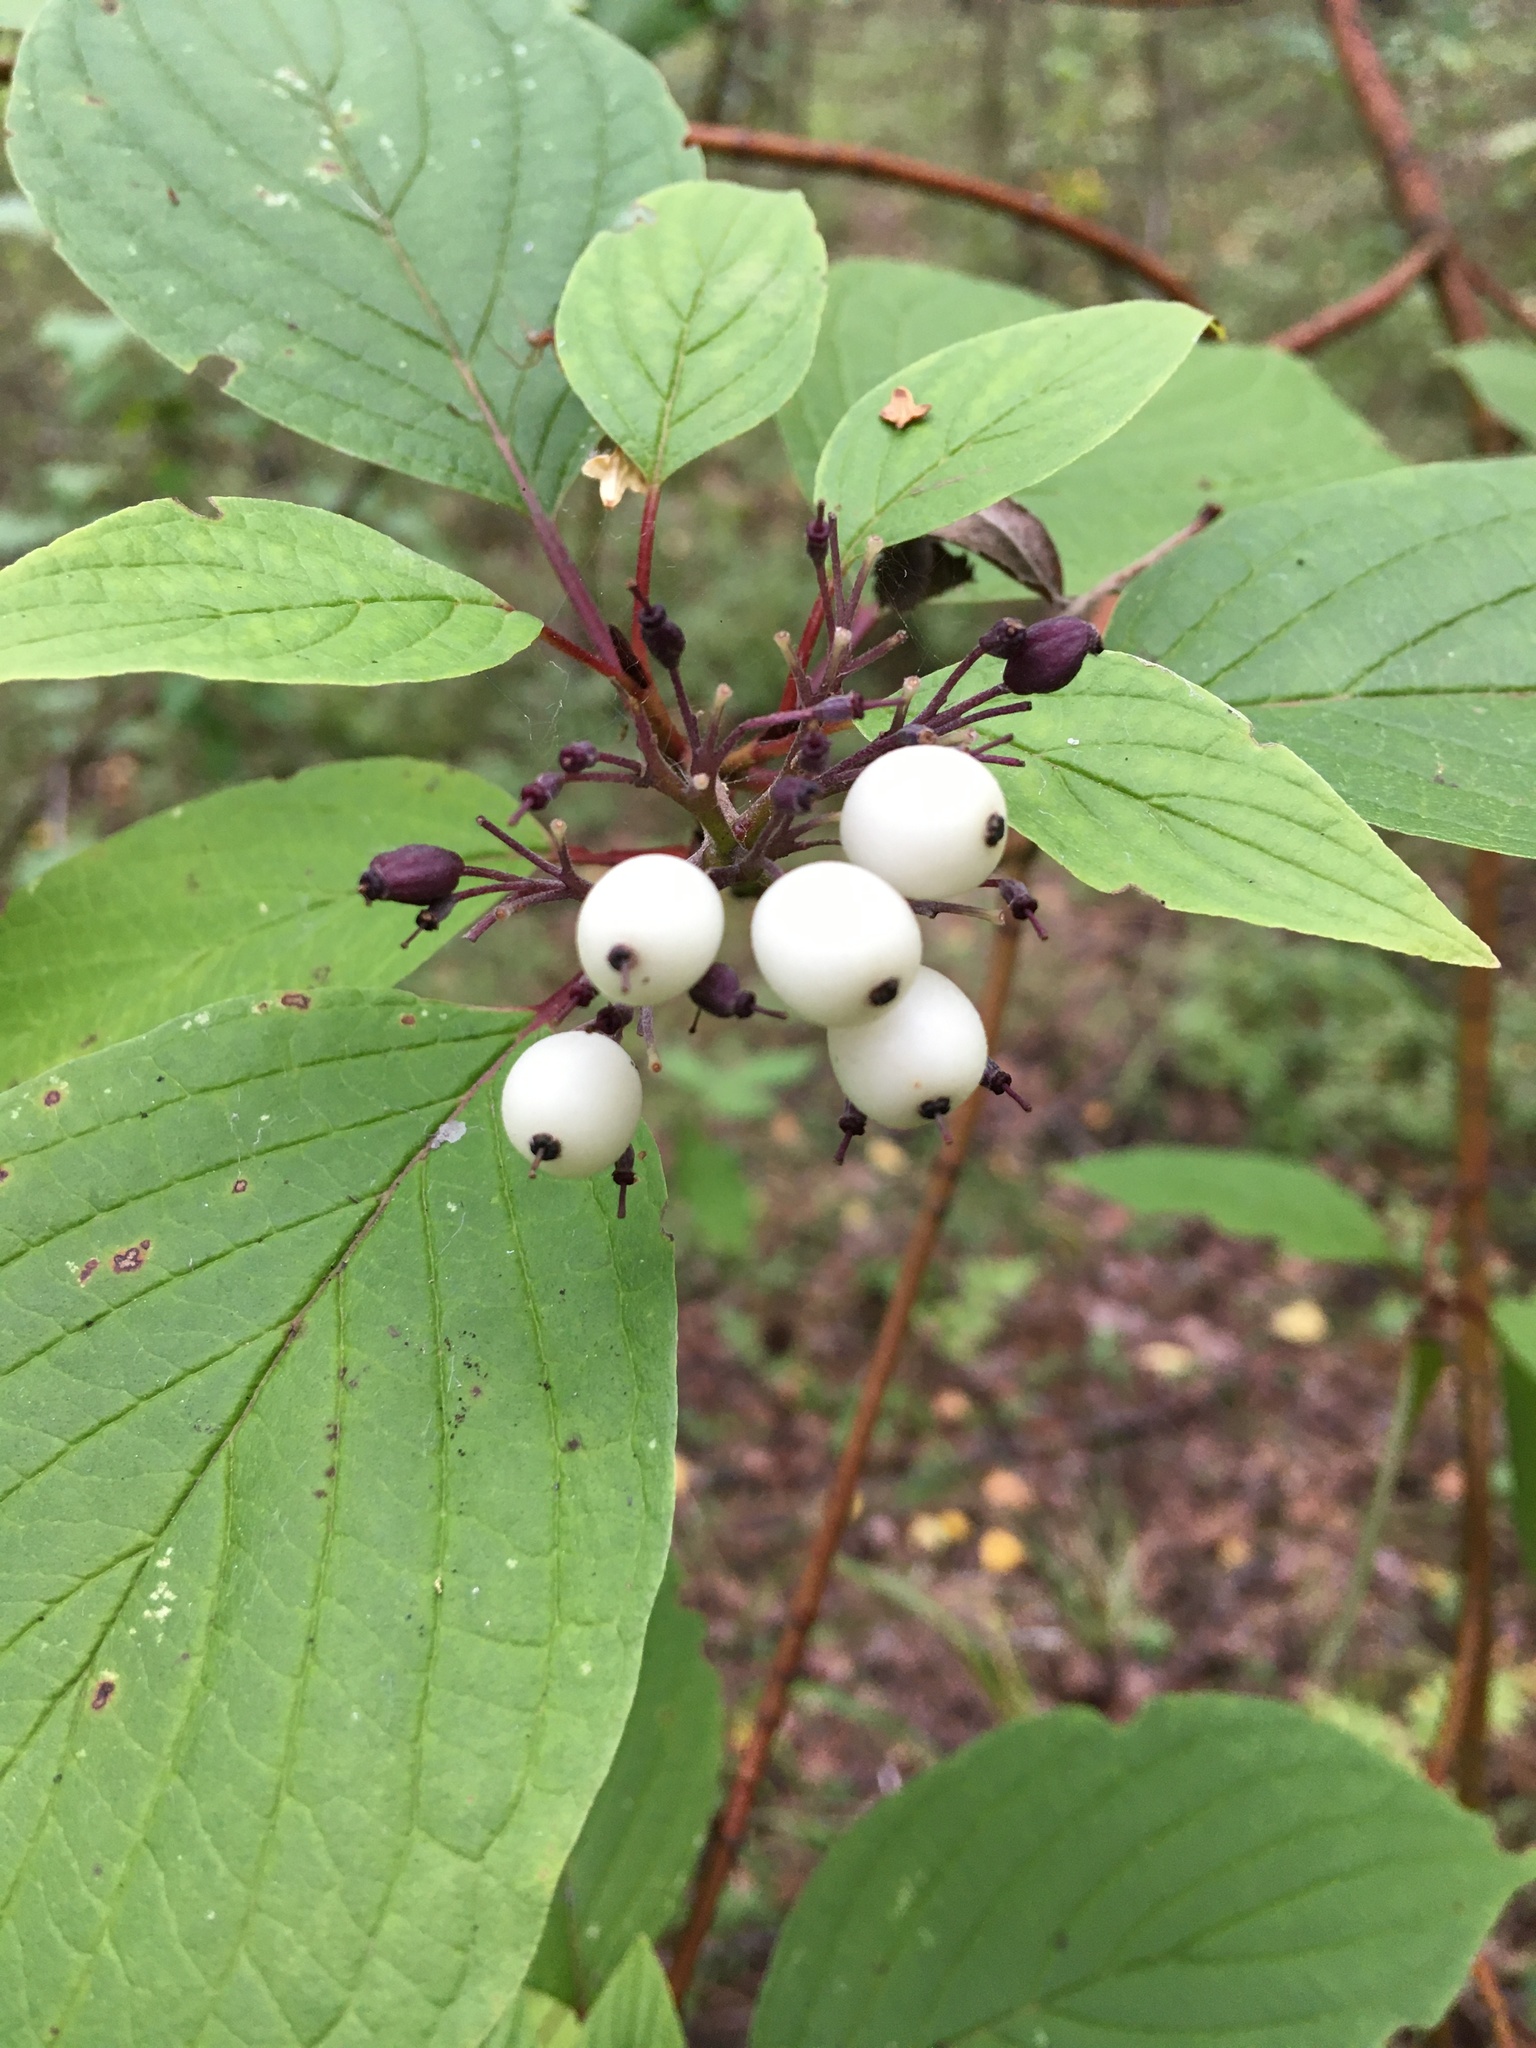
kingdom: Plantae
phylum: Tracheophyta
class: Magnoliopsida
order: Cornales
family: Cornaceae
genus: Cornus
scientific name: Cornus alba
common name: White dogwood
